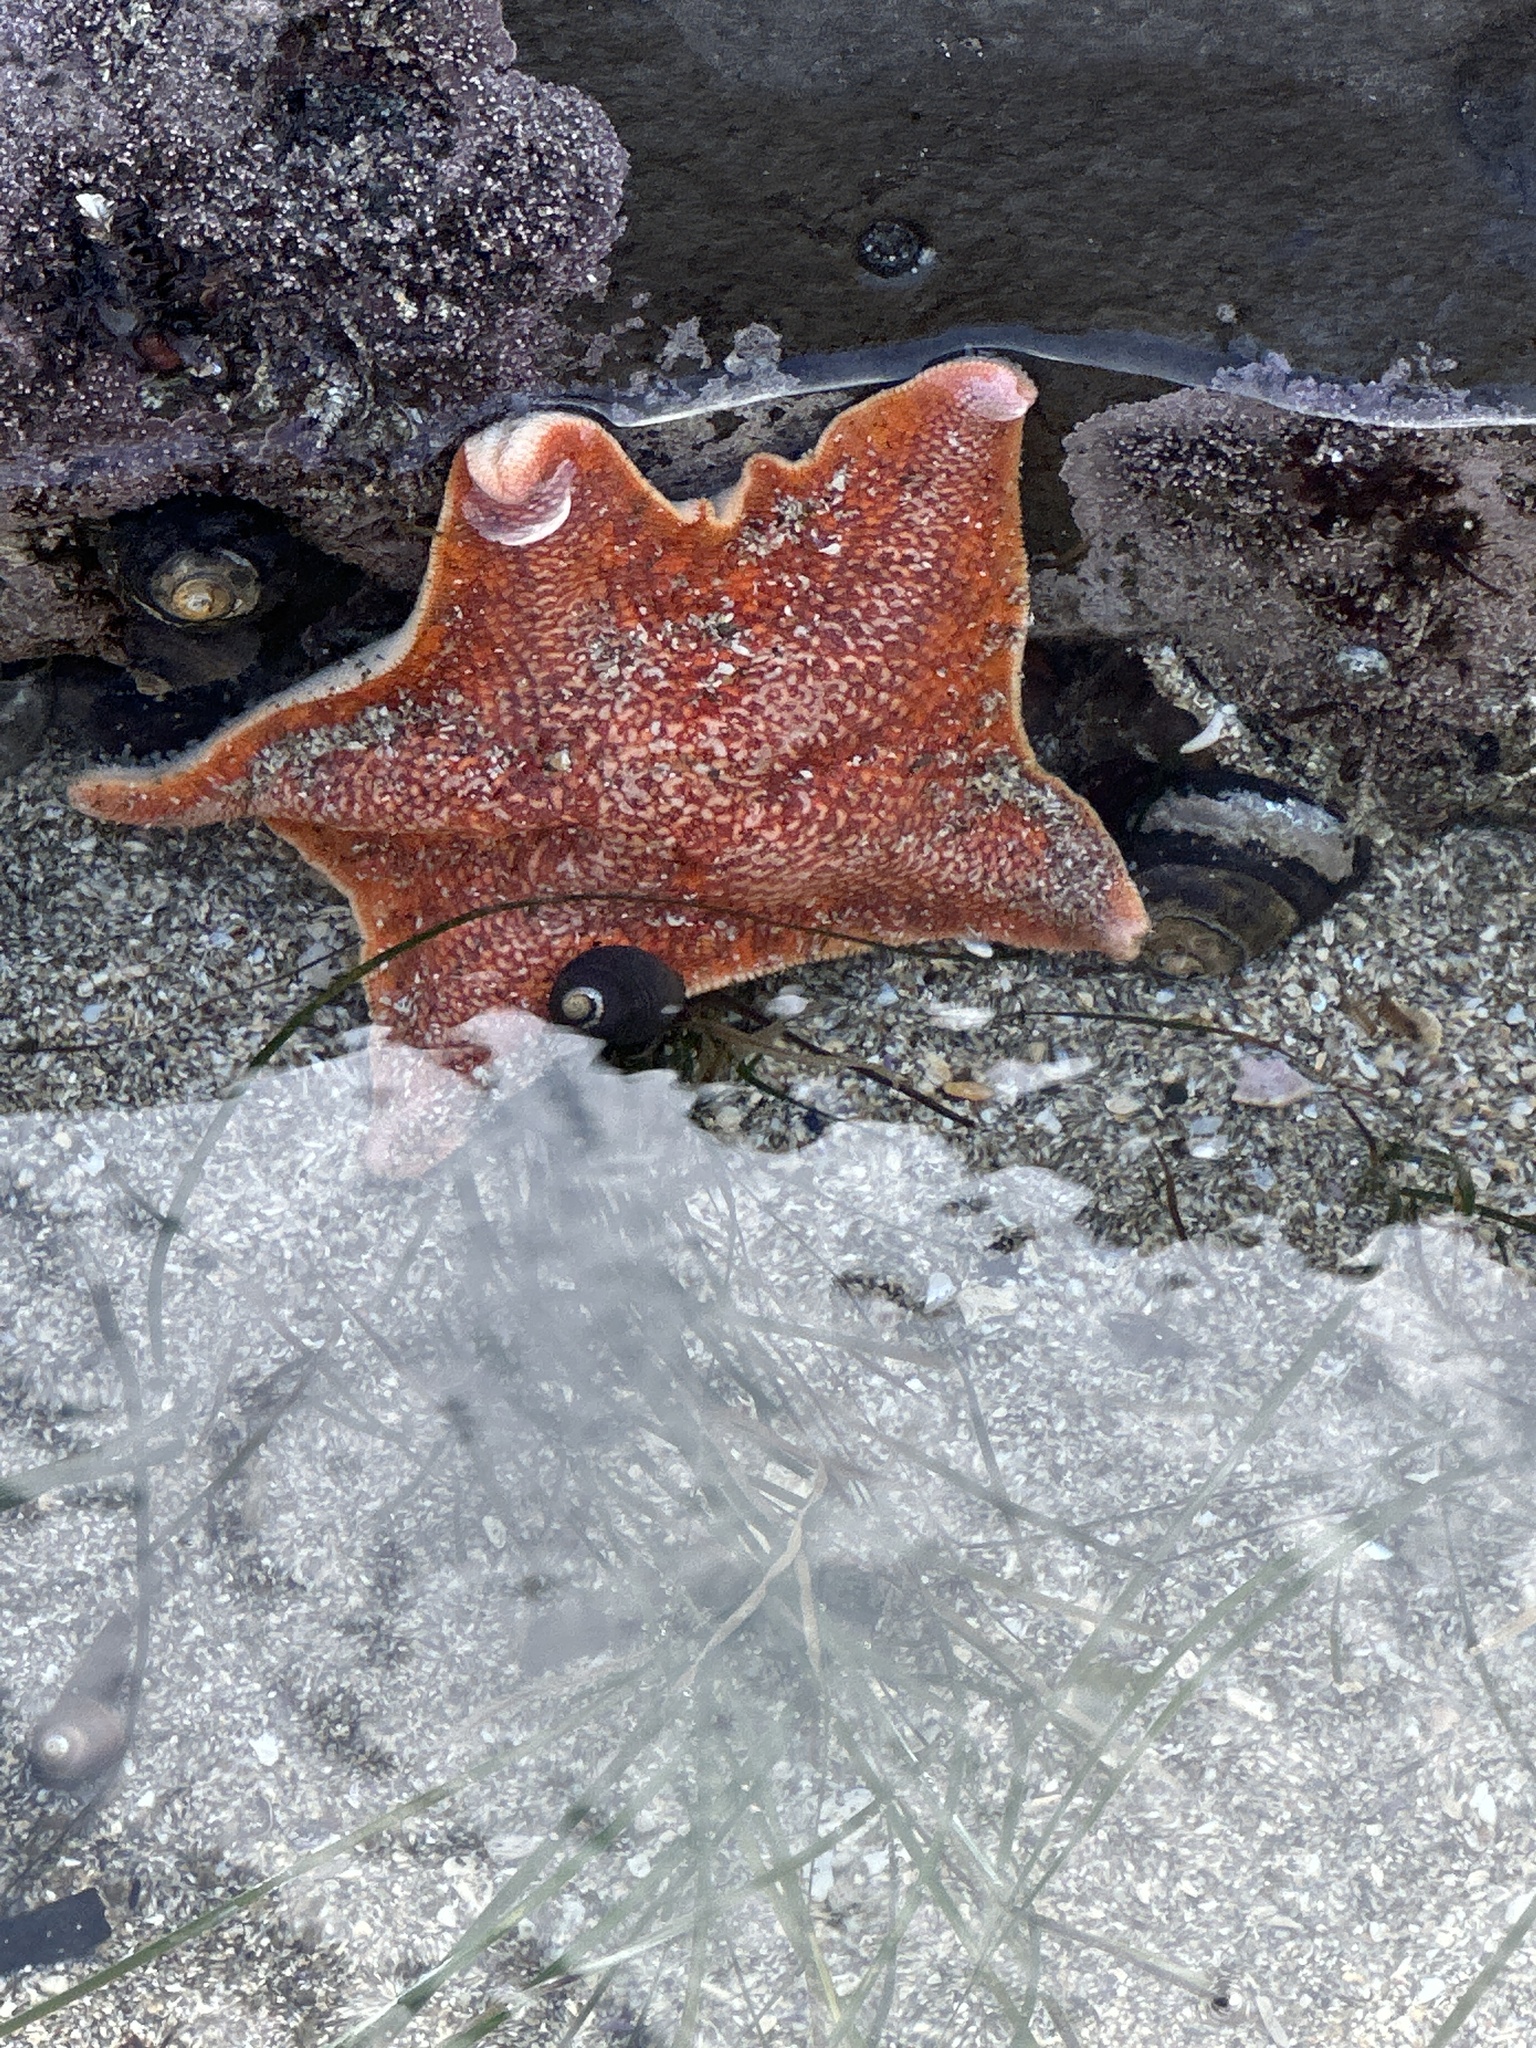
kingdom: Animalia
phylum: Echinodermata
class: Asteroidea
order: Valvatida
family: Asterinidae
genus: Patiria
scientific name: Patiria miniata
